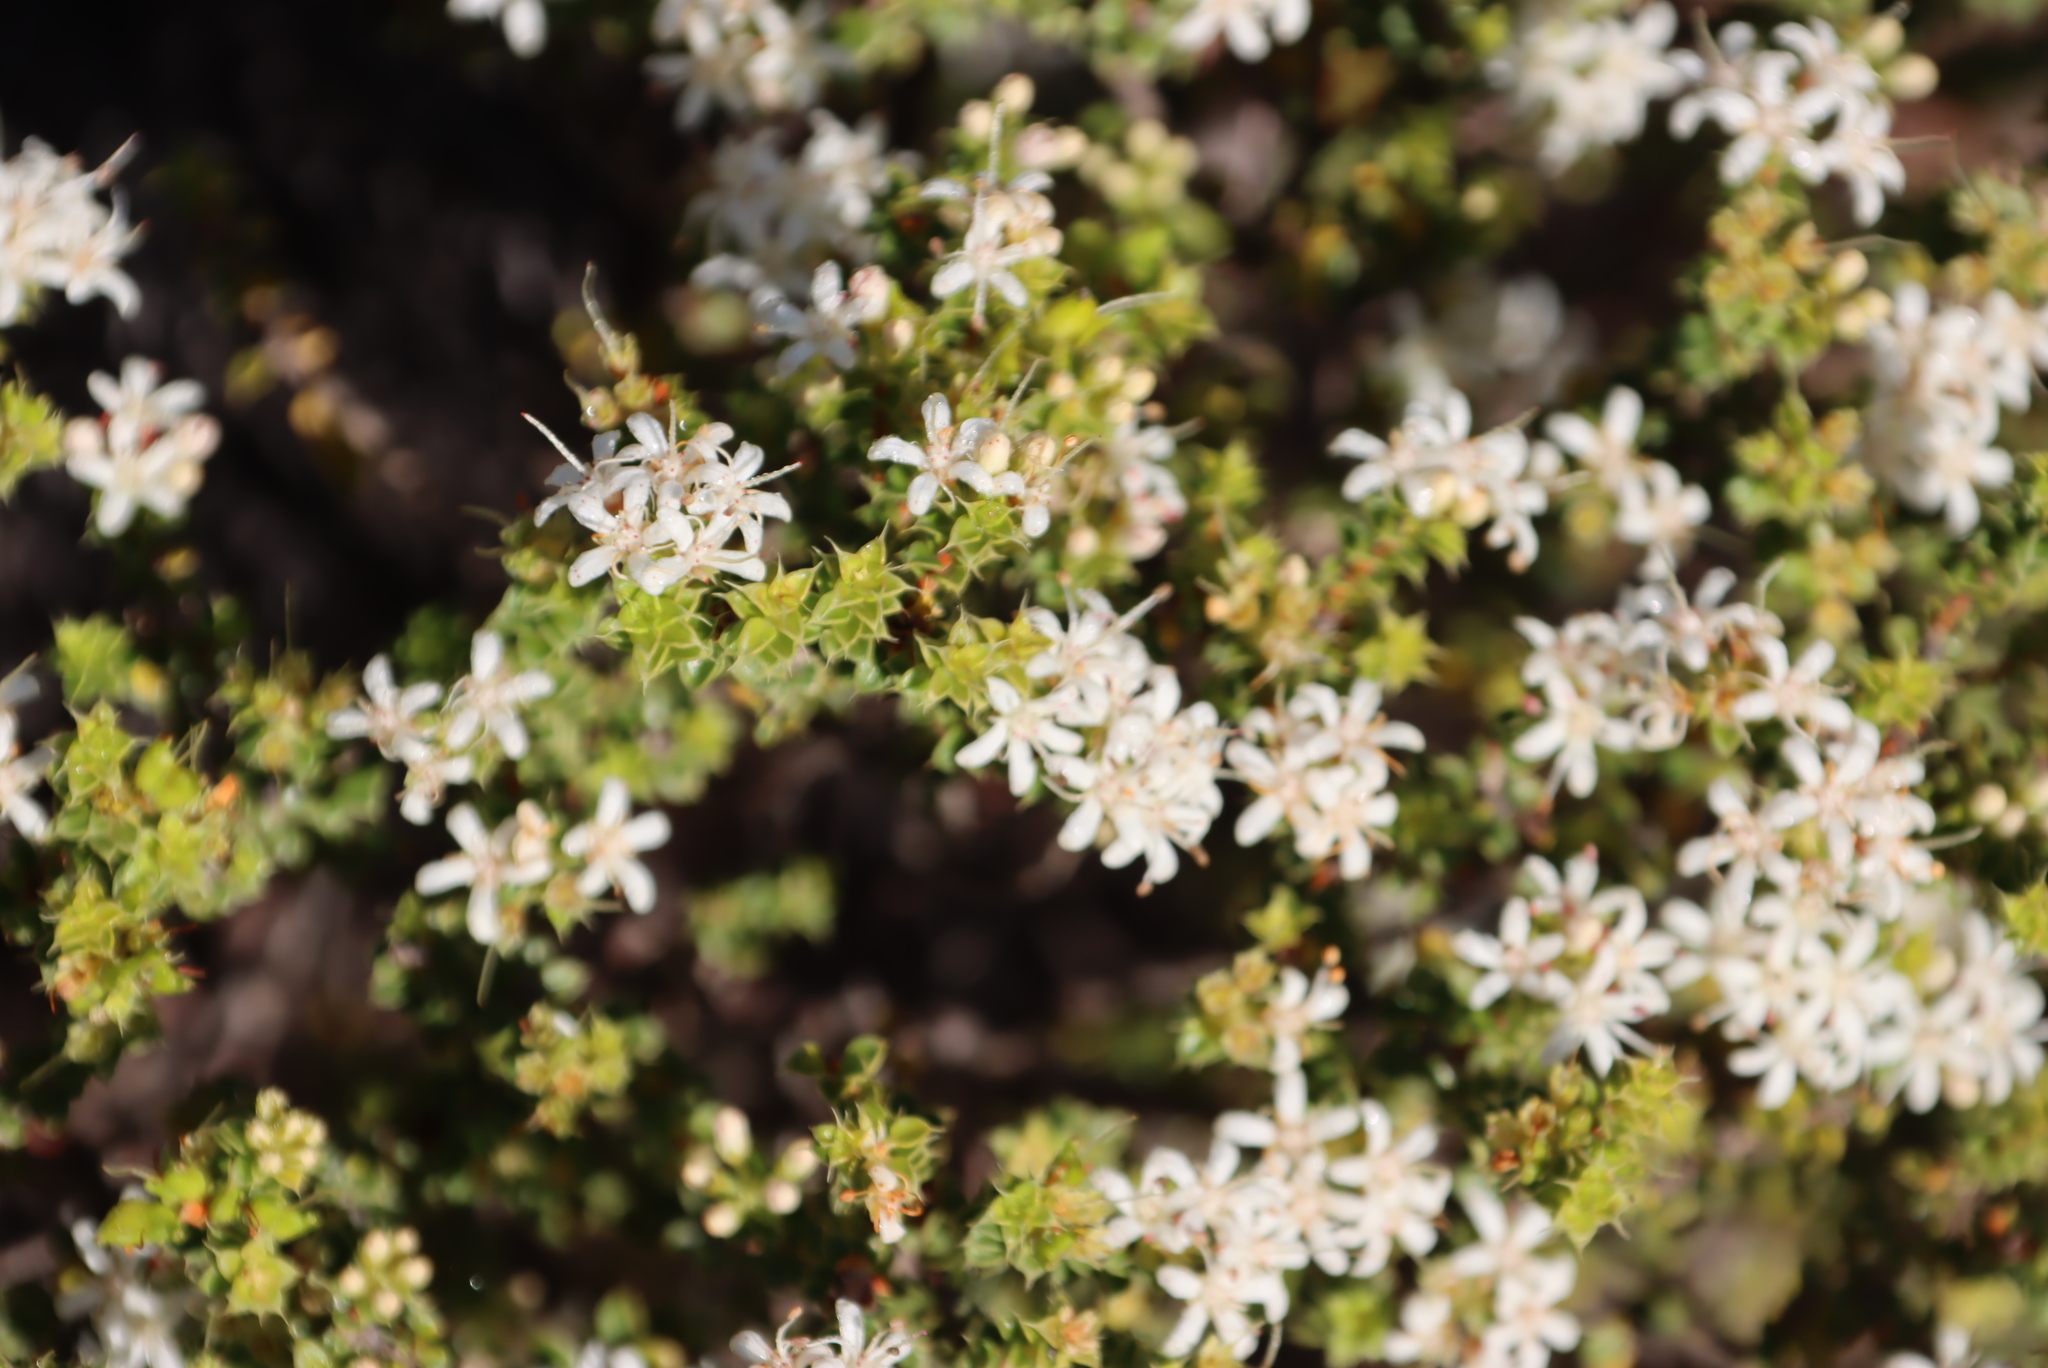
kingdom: Plantae
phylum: Tracheophyta
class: Magnoliopsida
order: Sapindales
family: Rutaceae
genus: Agathosma
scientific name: Agathosma recurvifolia
